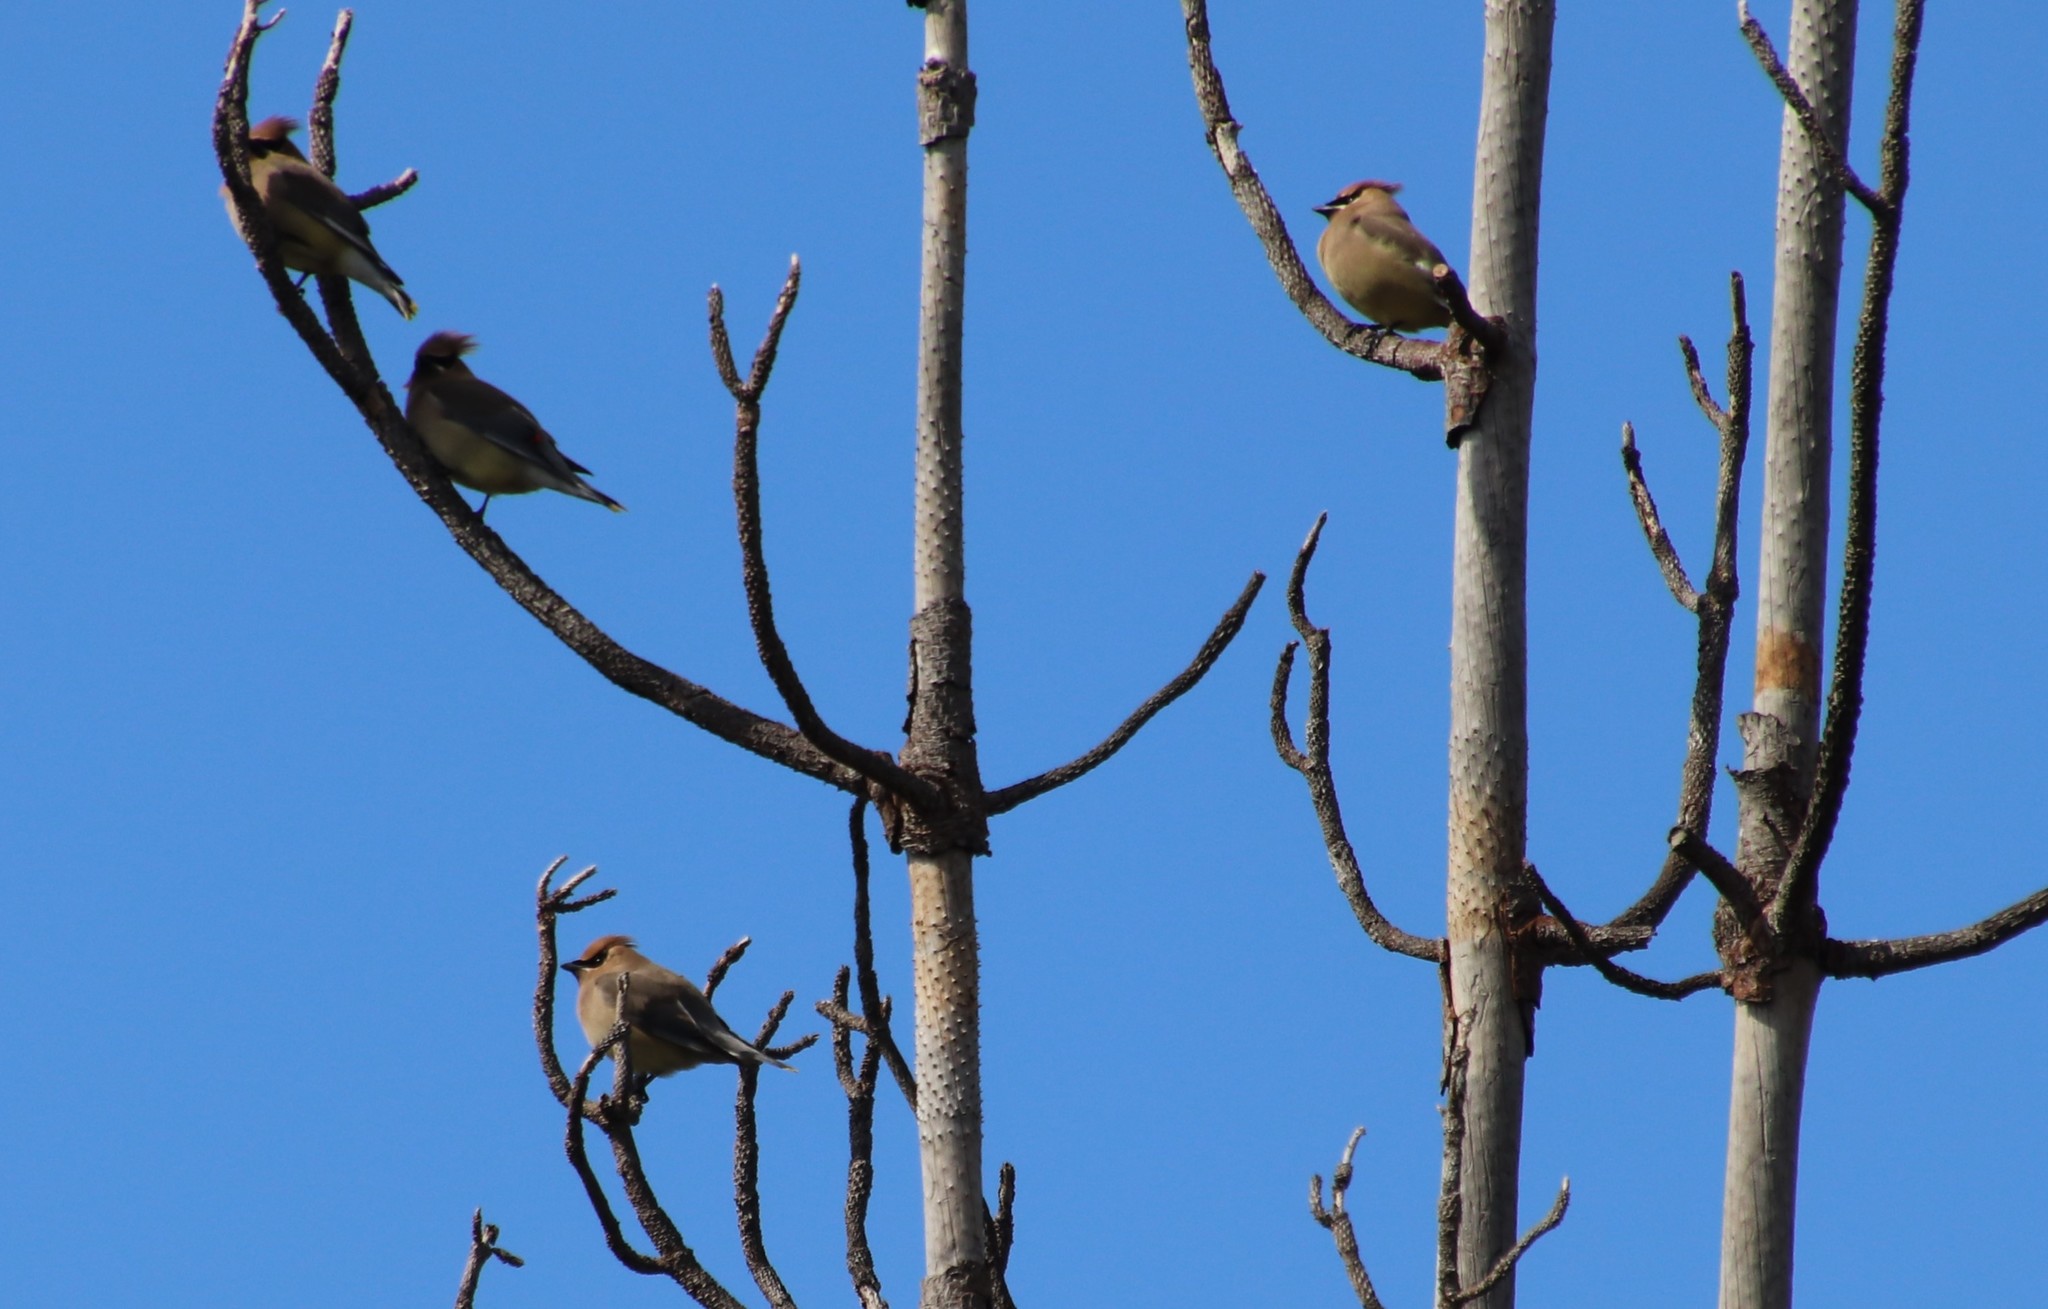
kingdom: Animalia
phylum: Chordata
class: Aves
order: Passeriformes
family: Bombycillidae
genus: Bombycilla
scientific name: Bombycilla cedrorum
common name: Cedar waxwing
